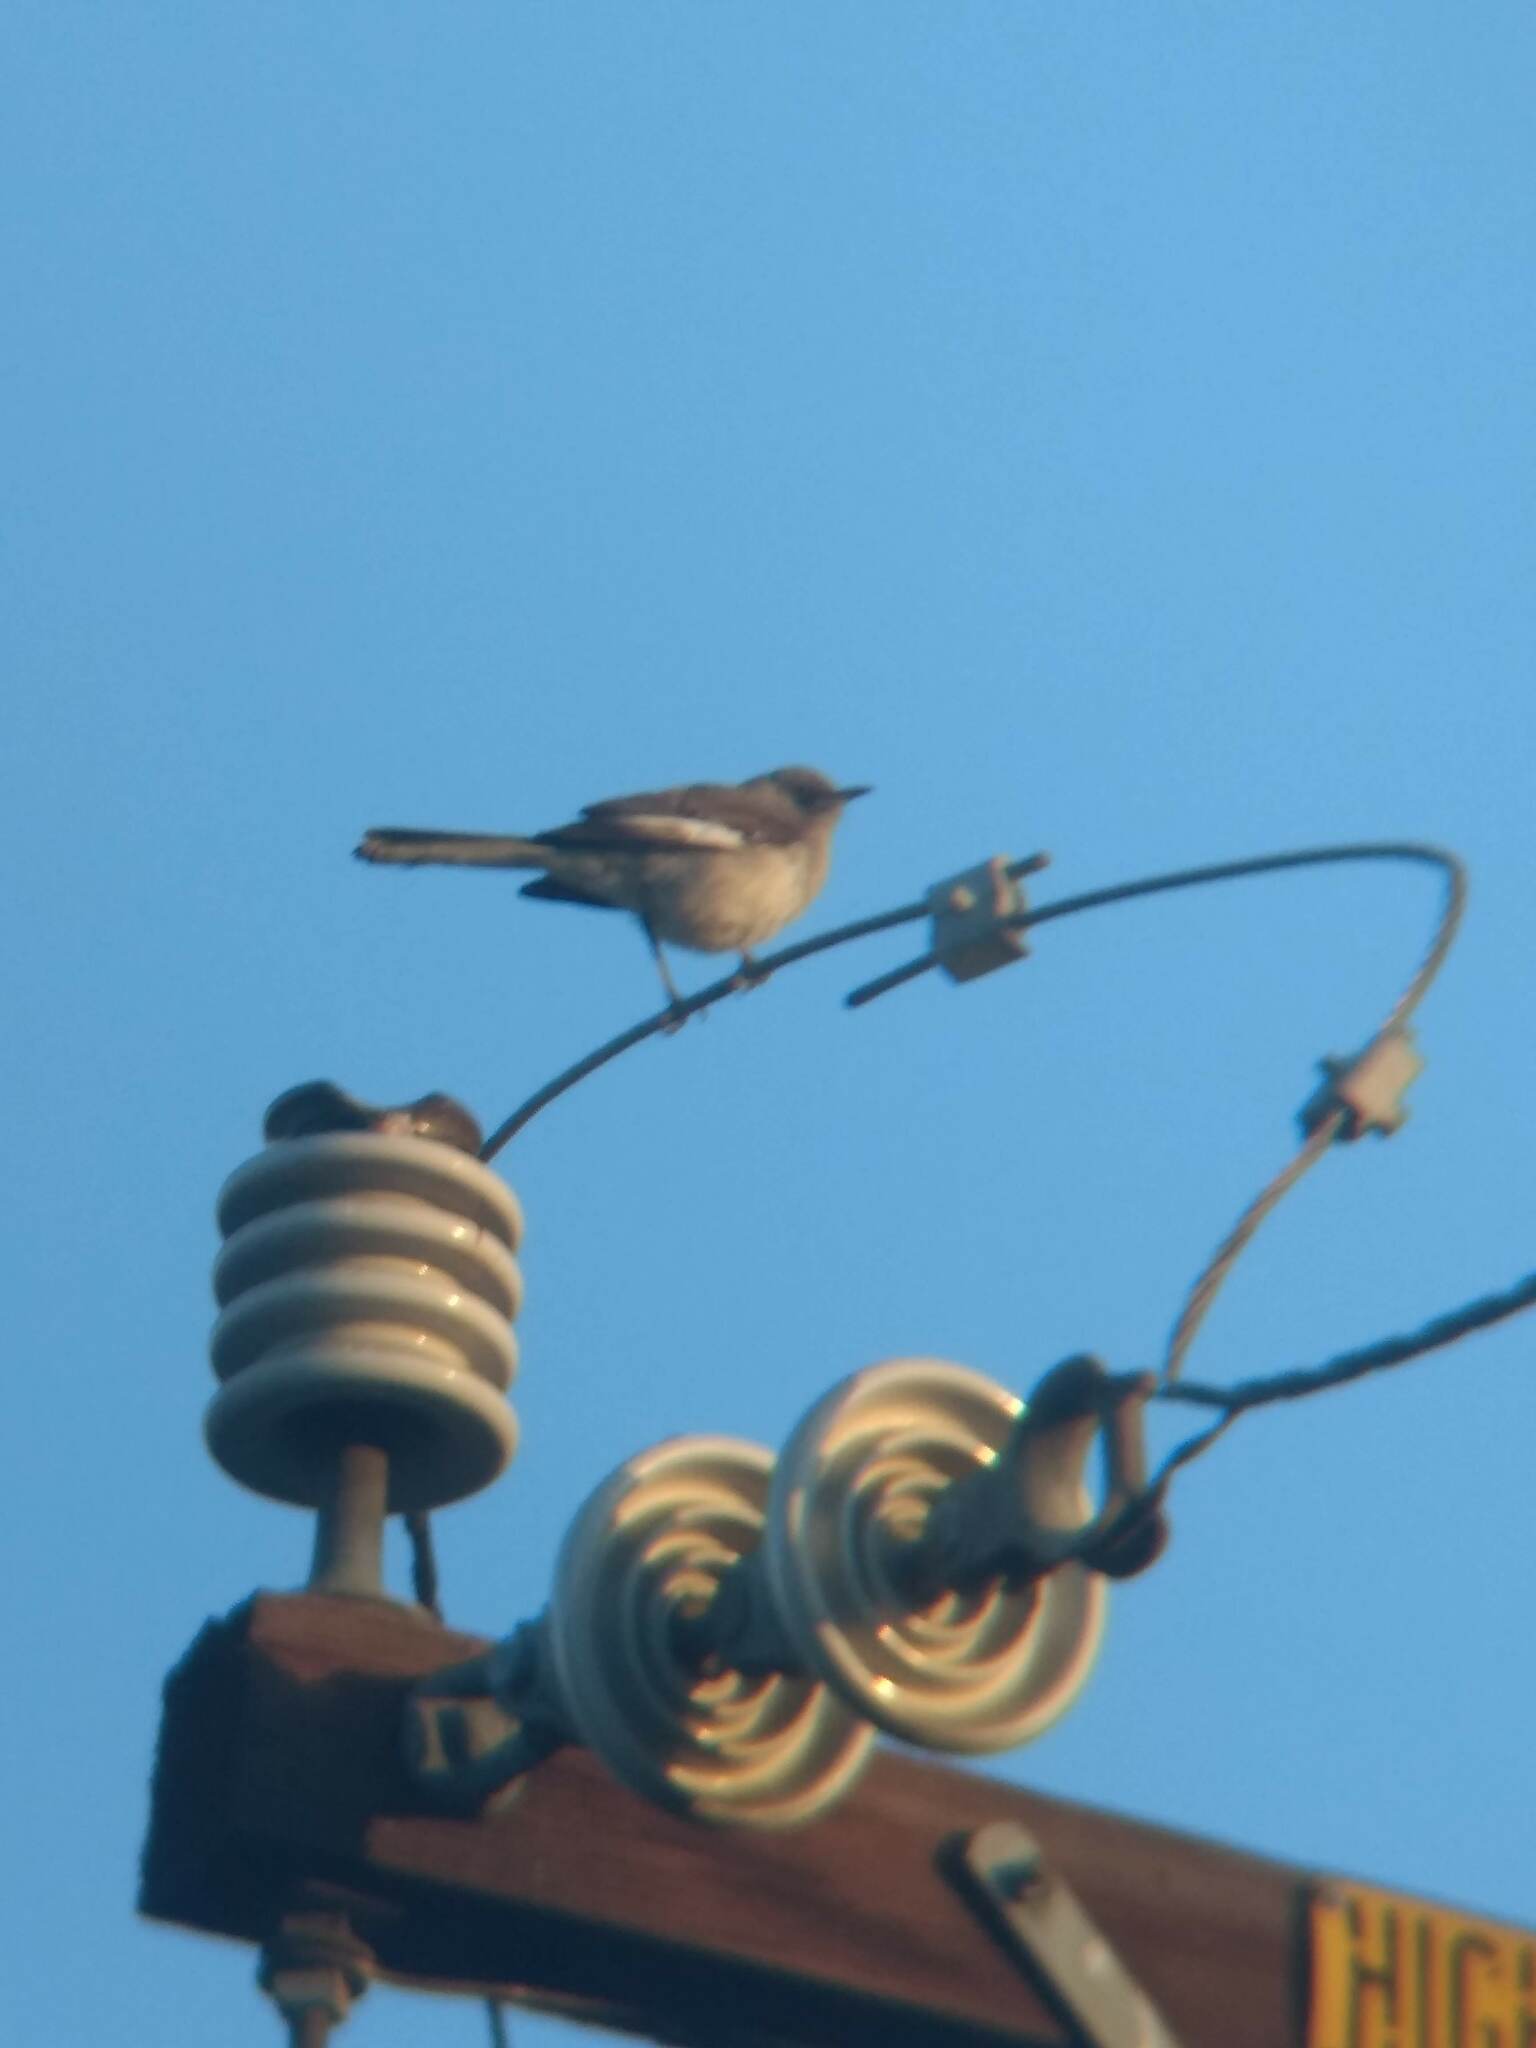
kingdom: Animalia
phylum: Chordata
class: Aves
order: Passeriformes
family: Mimidae
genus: Mimus
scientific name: Mimus polyglottos
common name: Northern mockingbird
